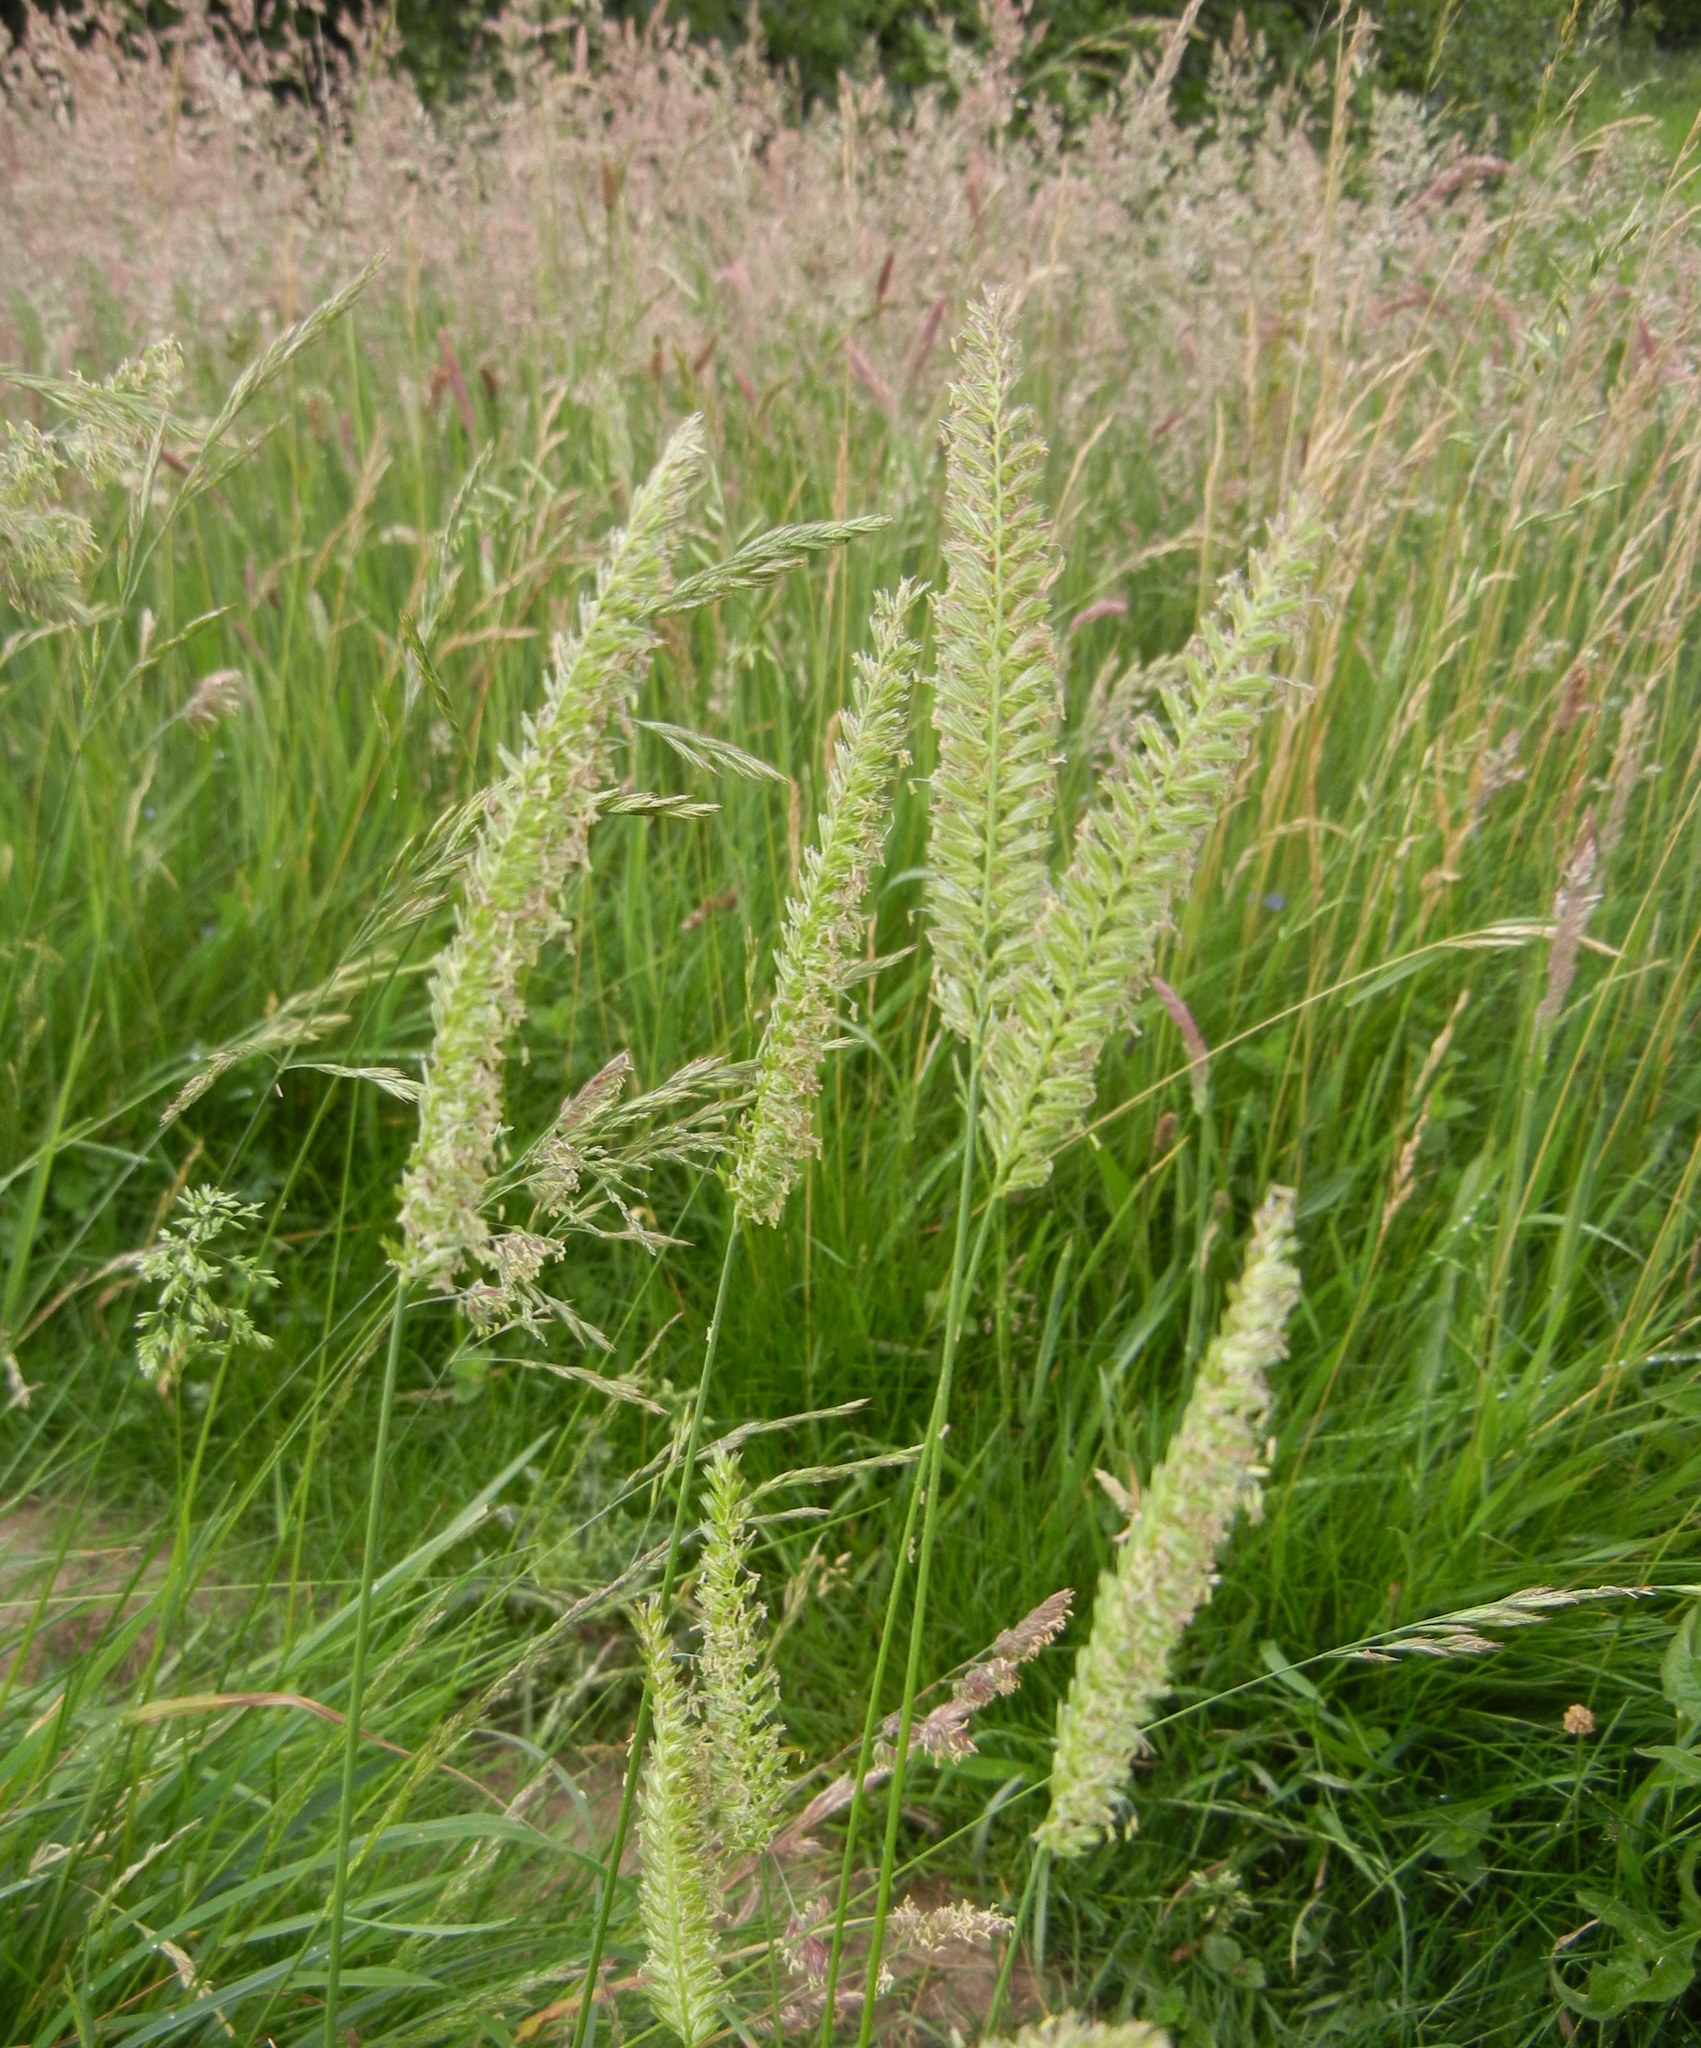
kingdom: Plantae
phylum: Tracheophyta
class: Liliopsida
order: Poales
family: Poaceae
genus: Cynosurus
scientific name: Cynosurus cristatus
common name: Crested dog's-tail
